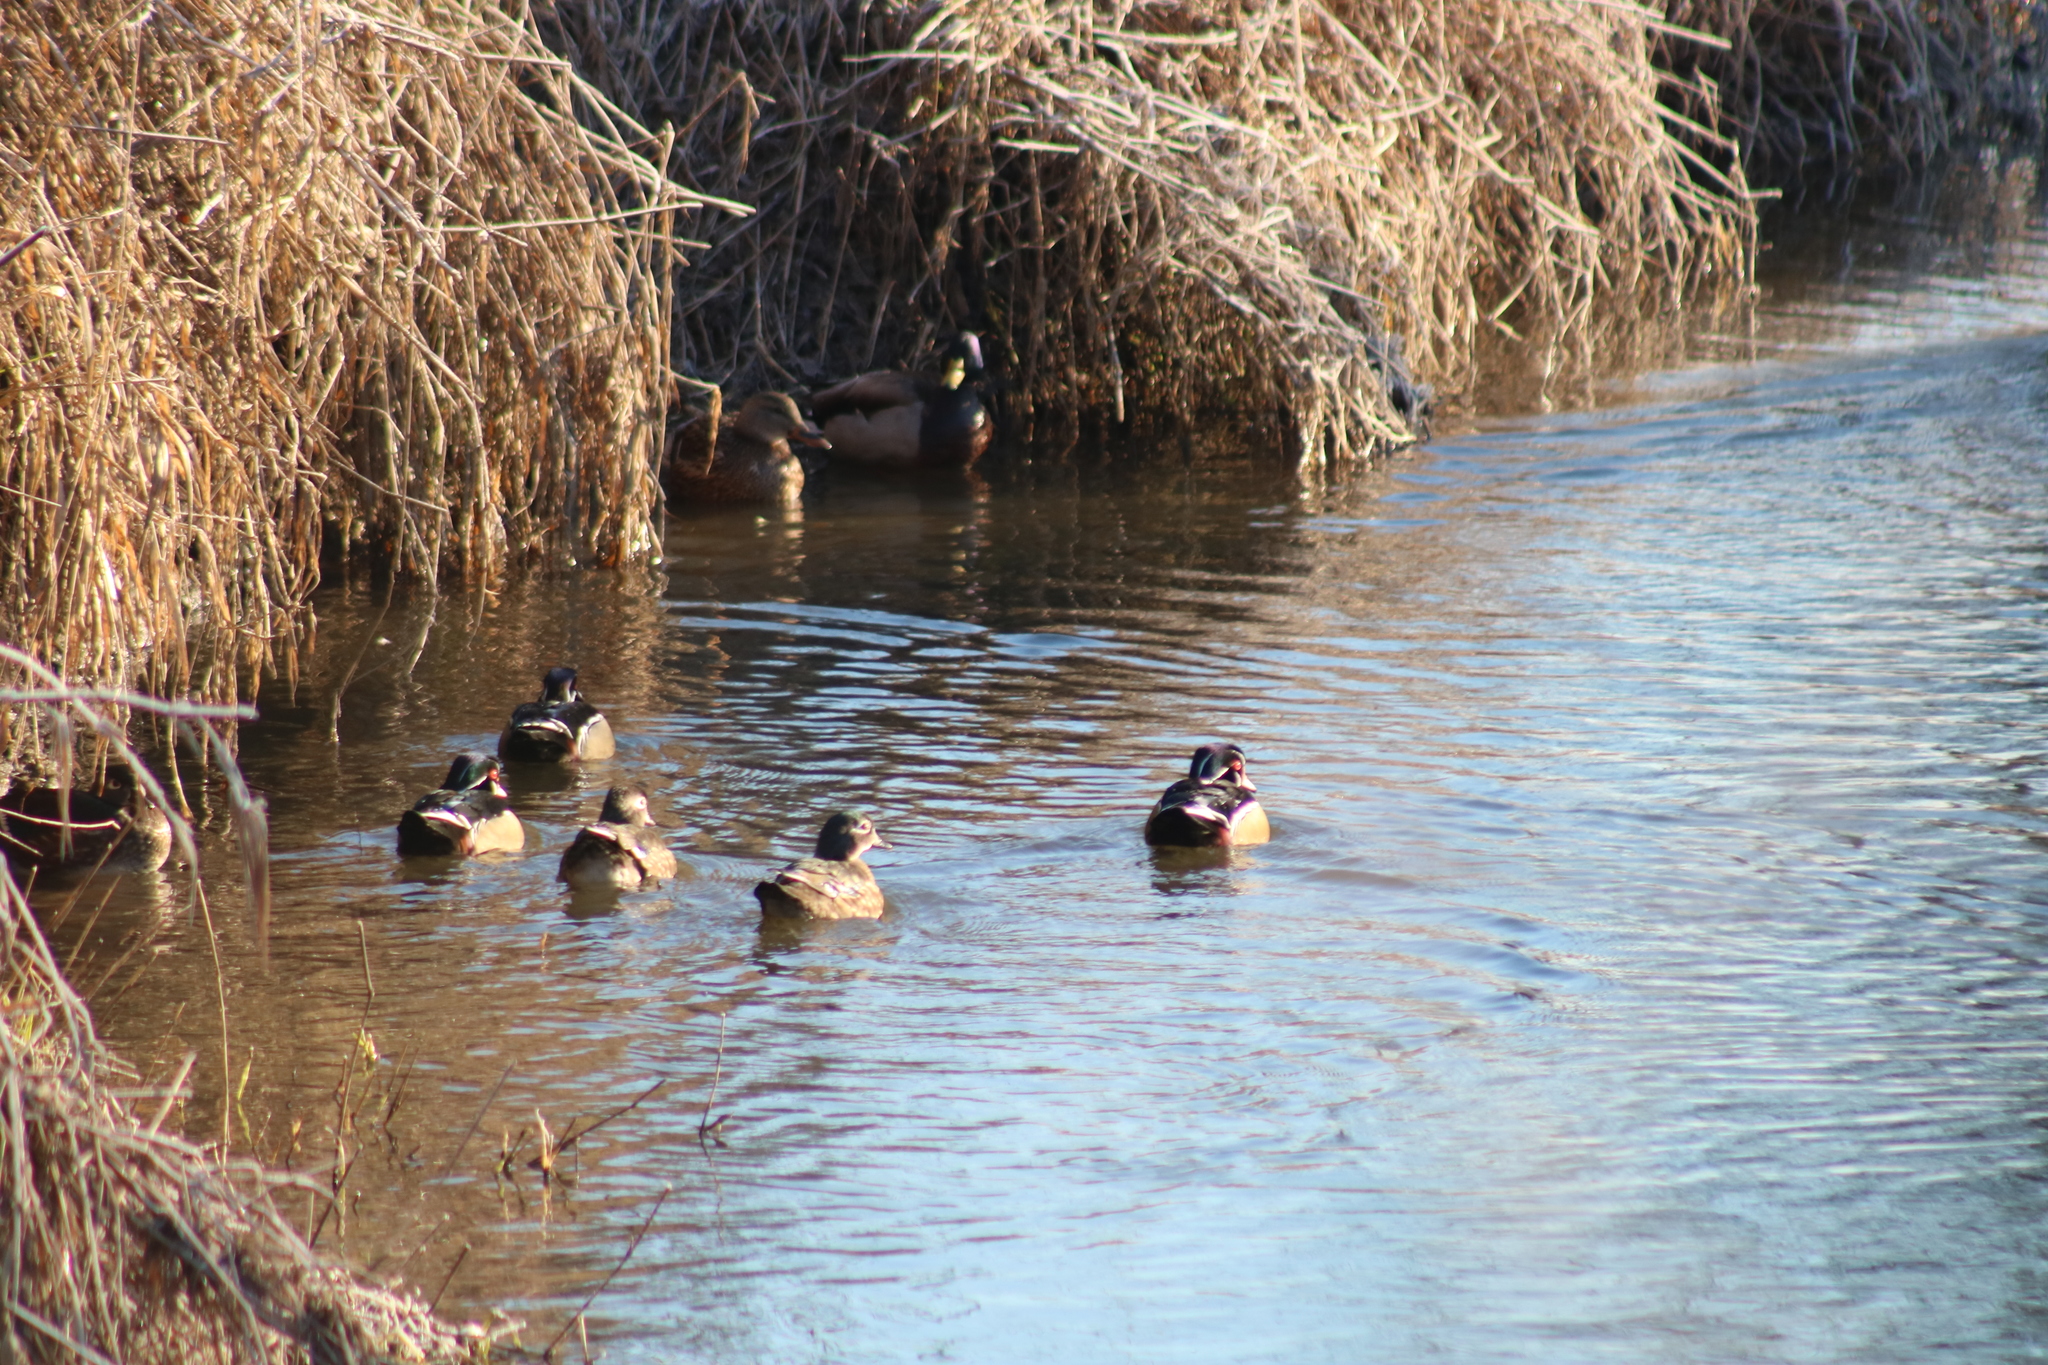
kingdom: Animalia
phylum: Chordata
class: Aves
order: Anseriformes
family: Anatidae
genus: Aix
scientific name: Aix sponsa
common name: Wood duck
